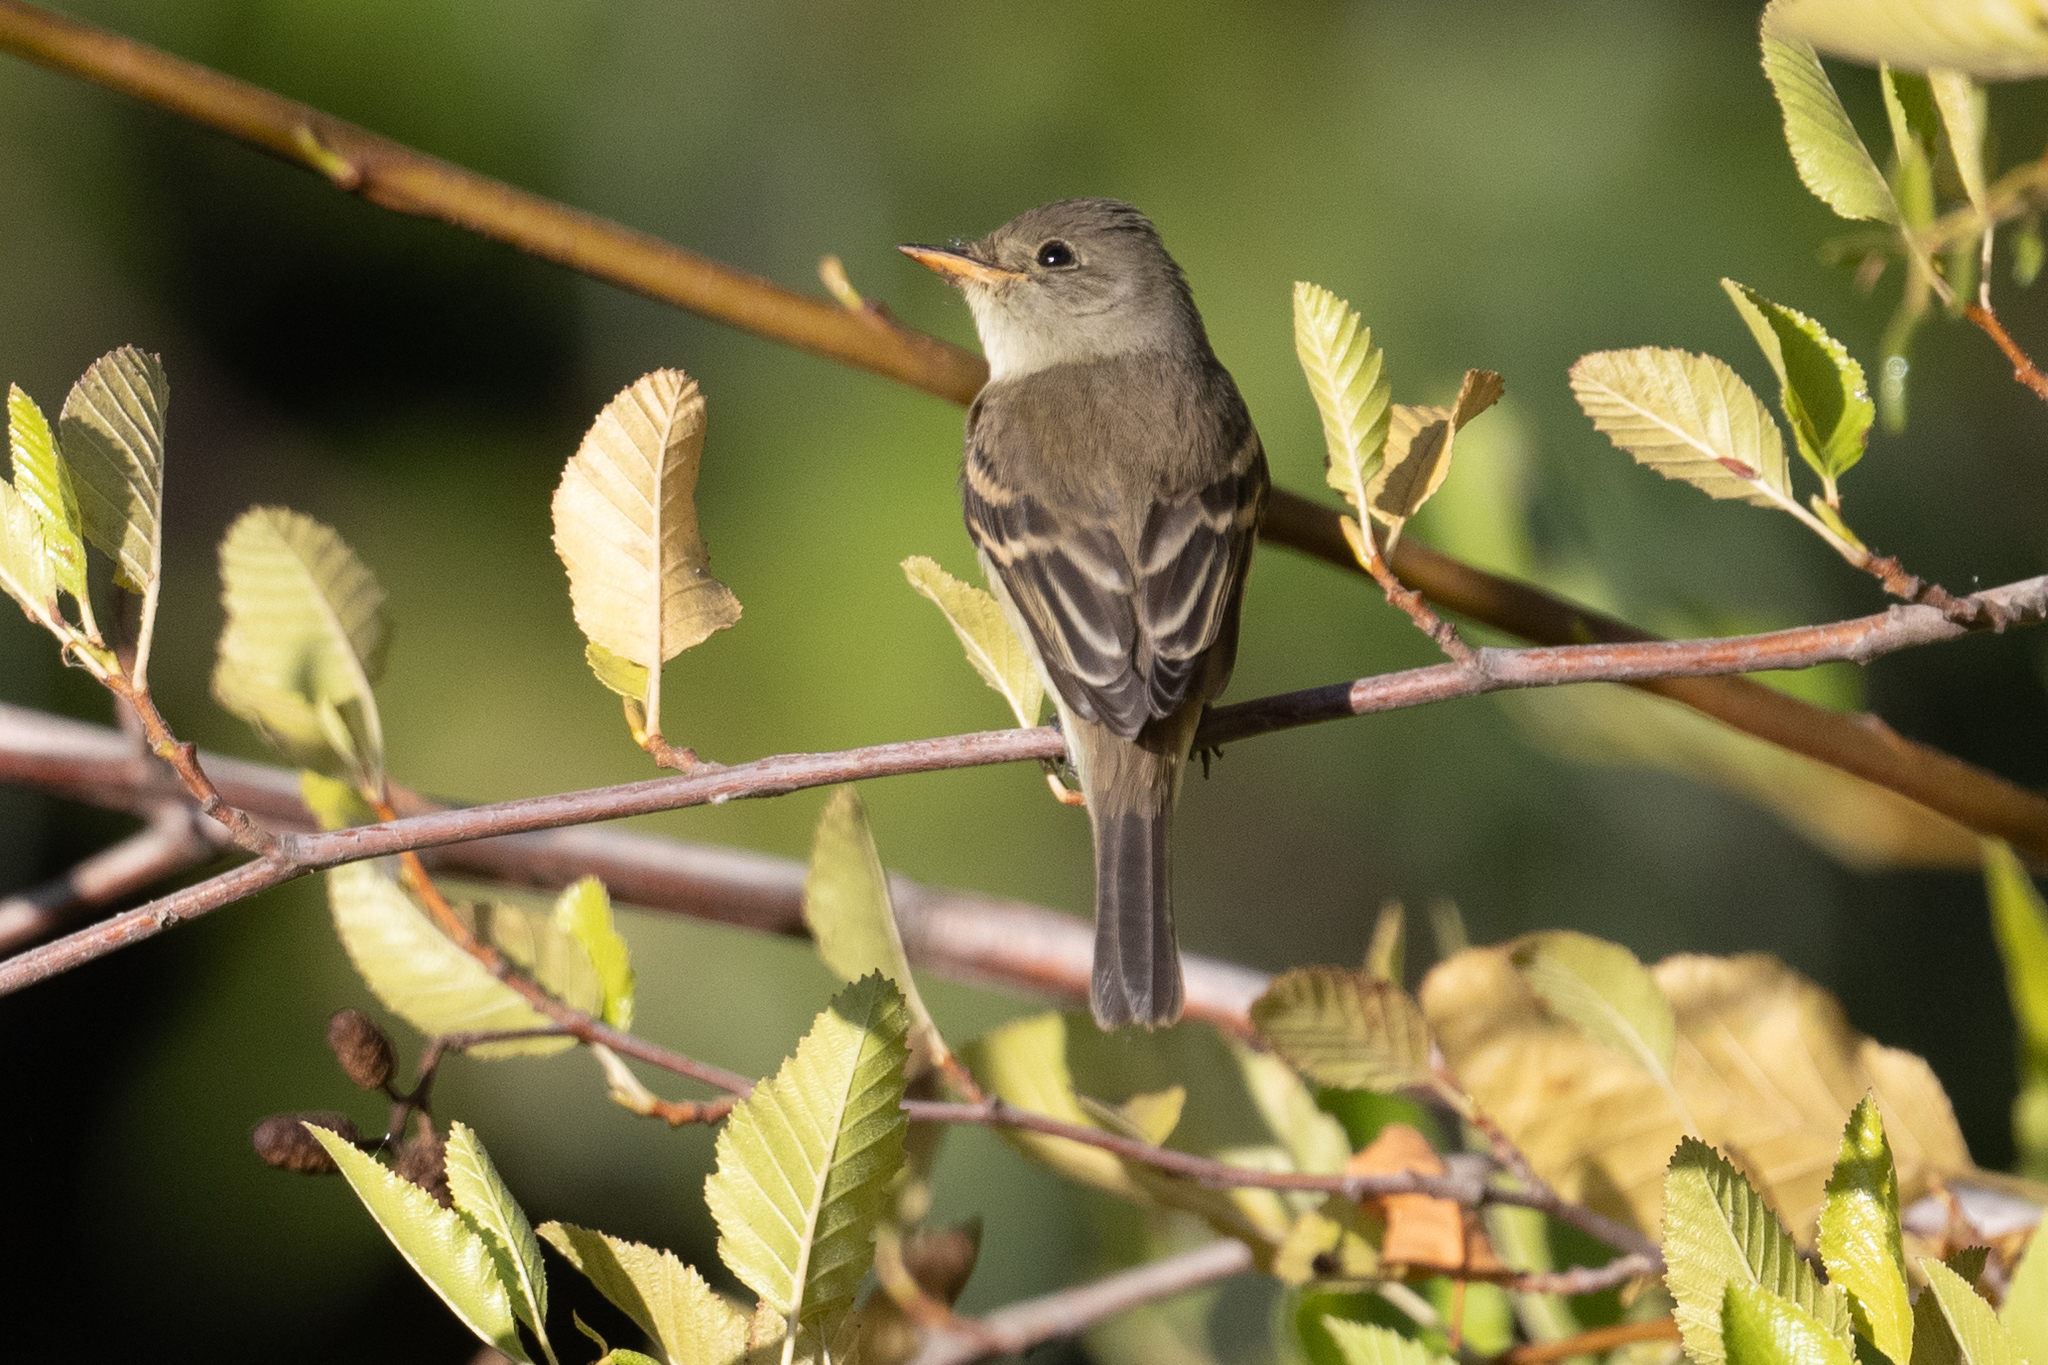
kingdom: Animalia
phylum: Chordata
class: Aves
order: Passeriformes
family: Tyrannidae
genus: Empidonax
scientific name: Empidonax traillii
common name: Willow flycatcher
